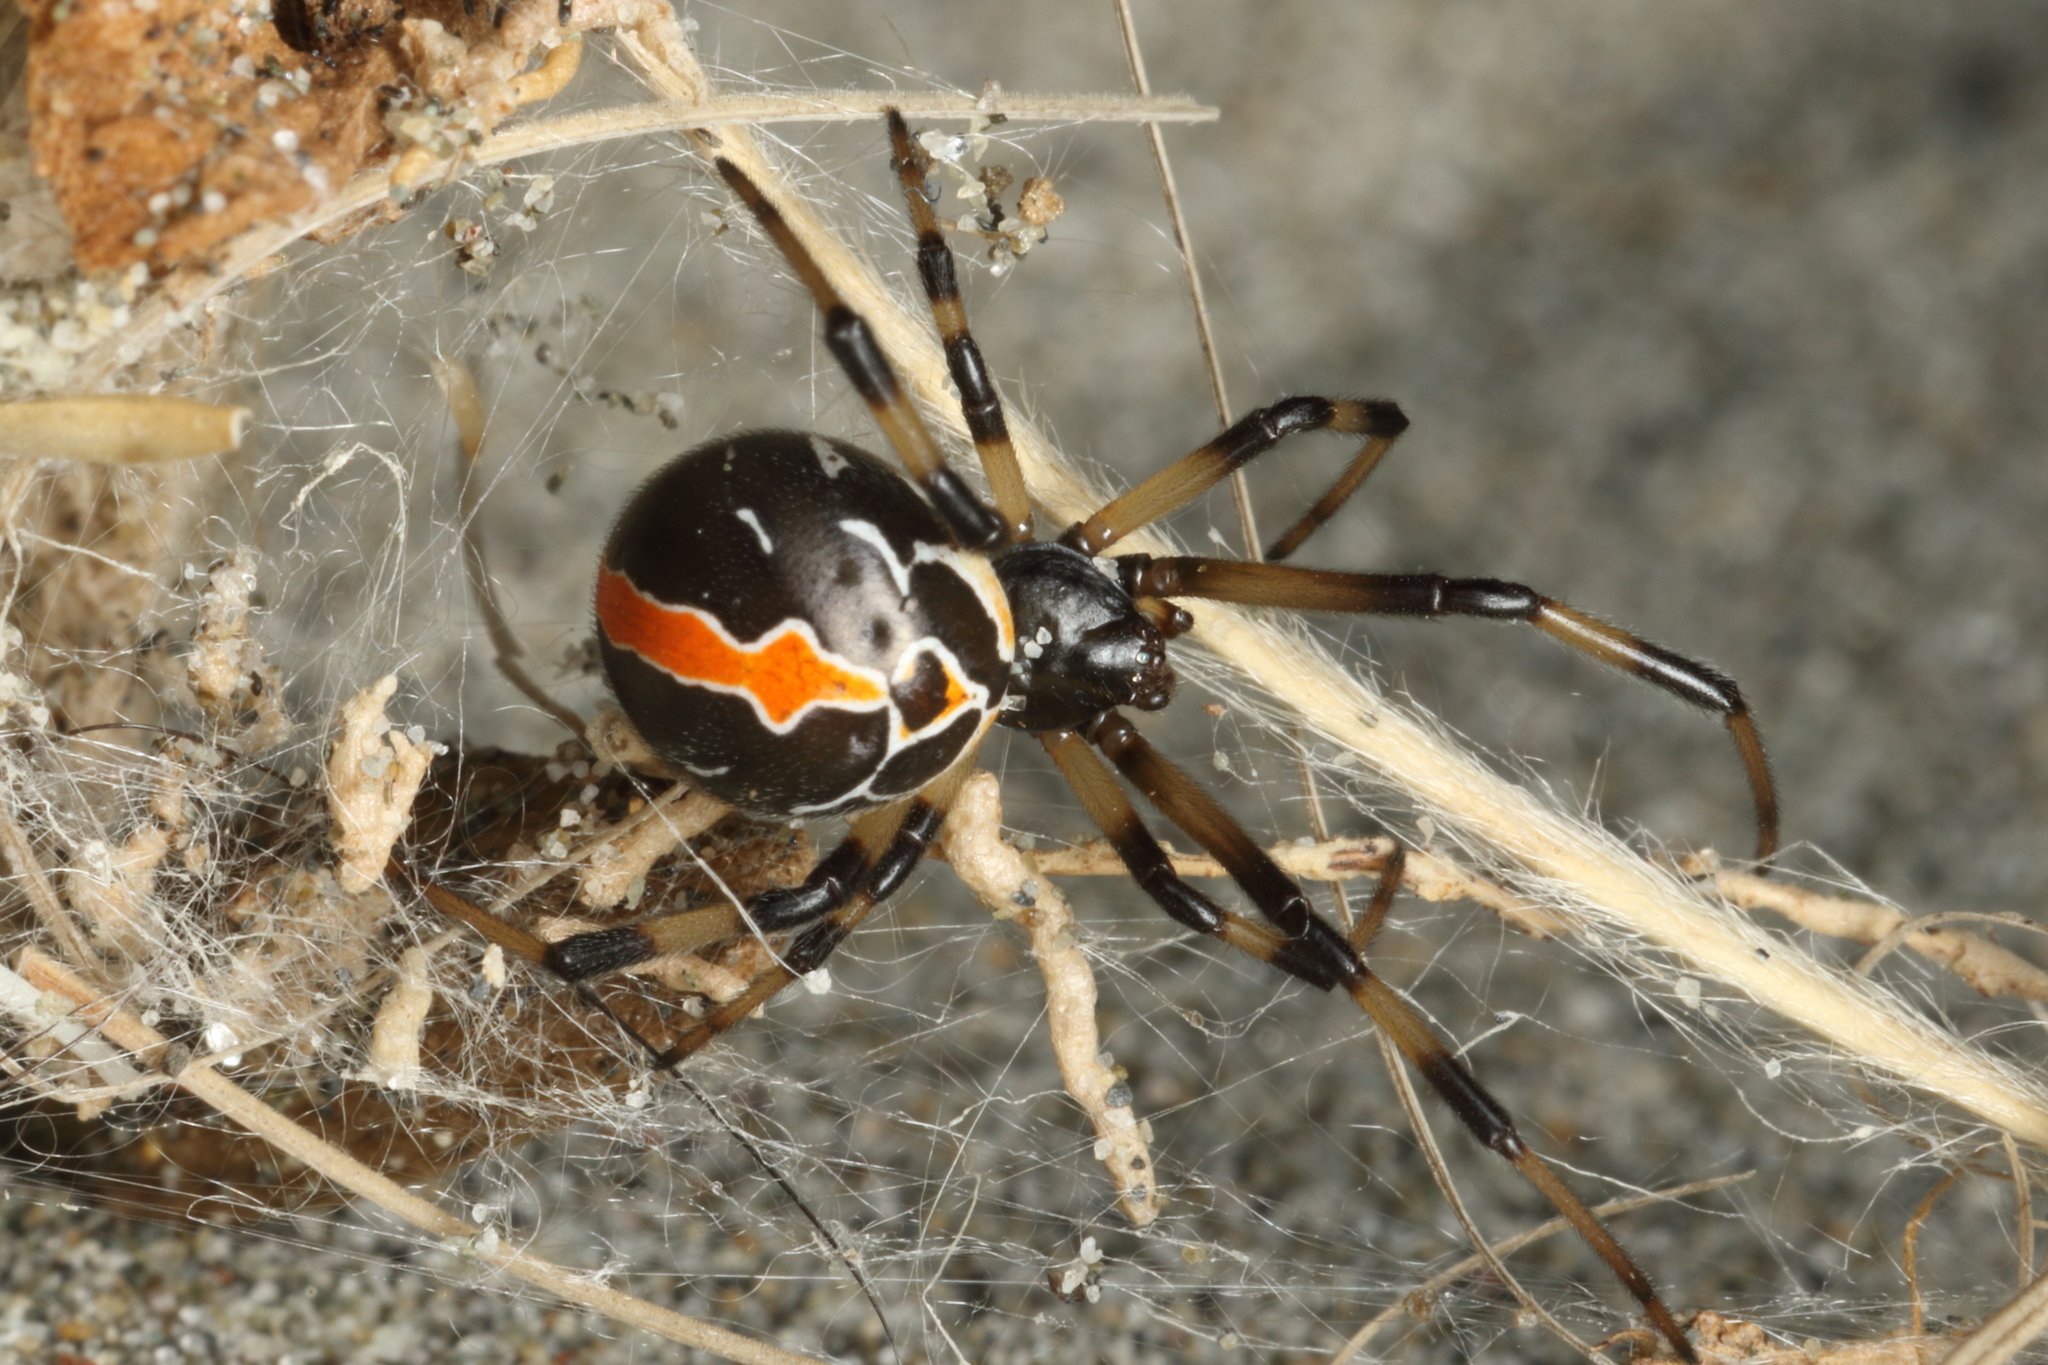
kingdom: Animalia
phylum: Arthropoda
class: Arachnida
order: Araneae
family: Theridiidae
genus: Latrodectus
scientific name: Latrodectus katipo
